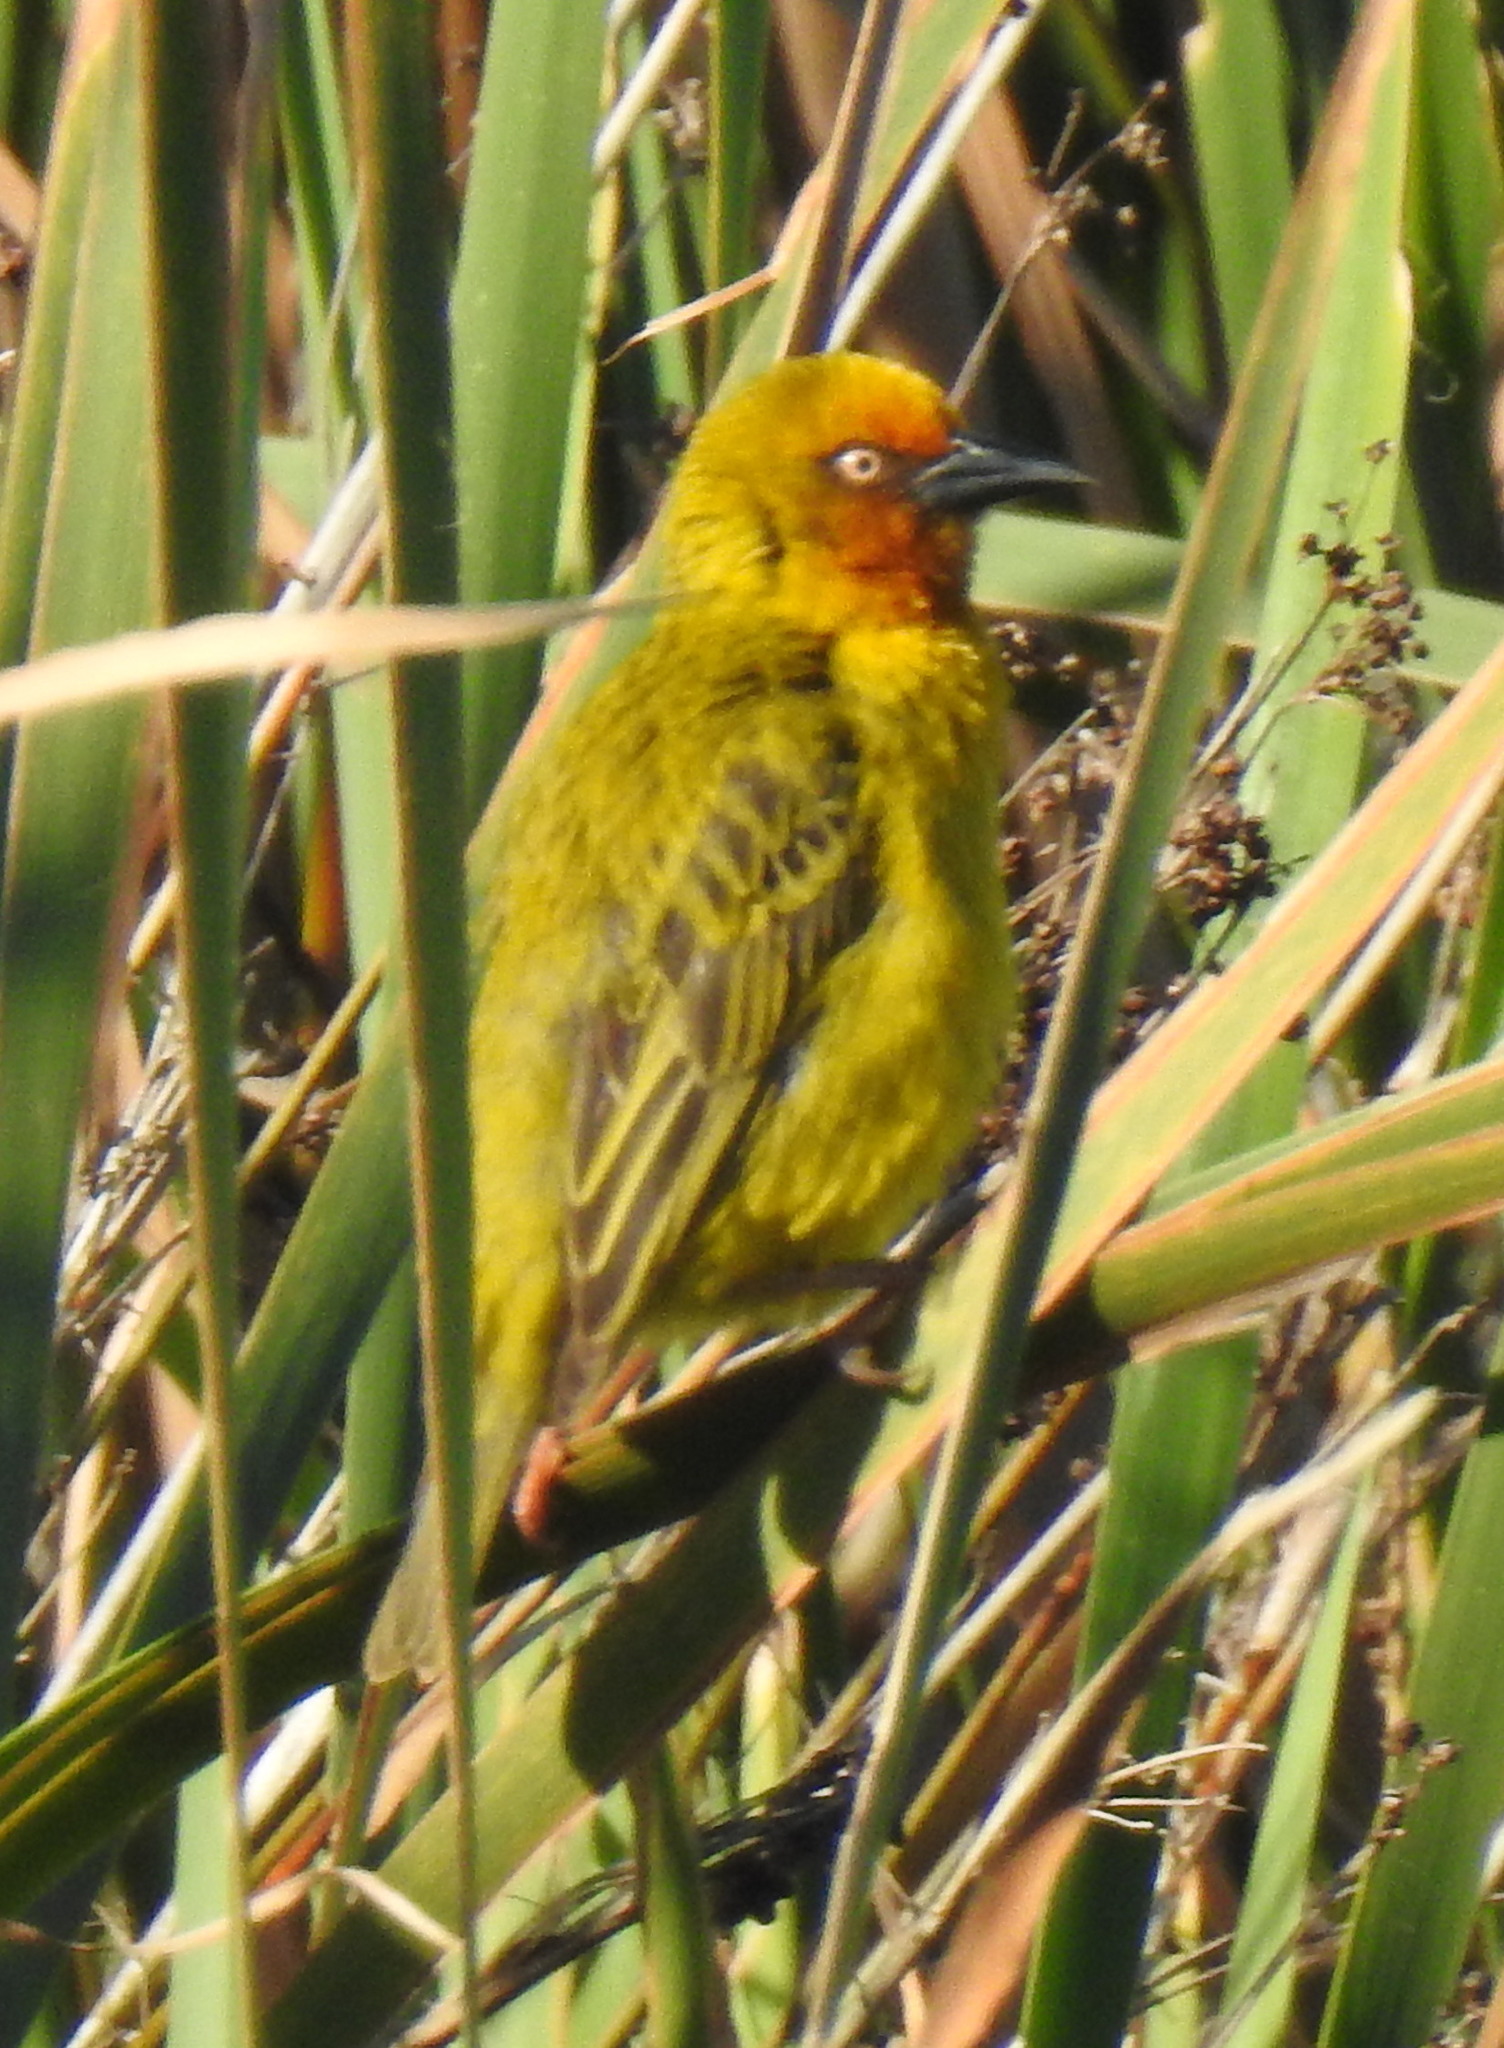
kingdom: Animalia
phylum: Chordata
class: Aves
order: Passeriformes
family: Ploceidae
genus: Ploceus
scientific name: Ploceus capensis
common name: Cape weaver
